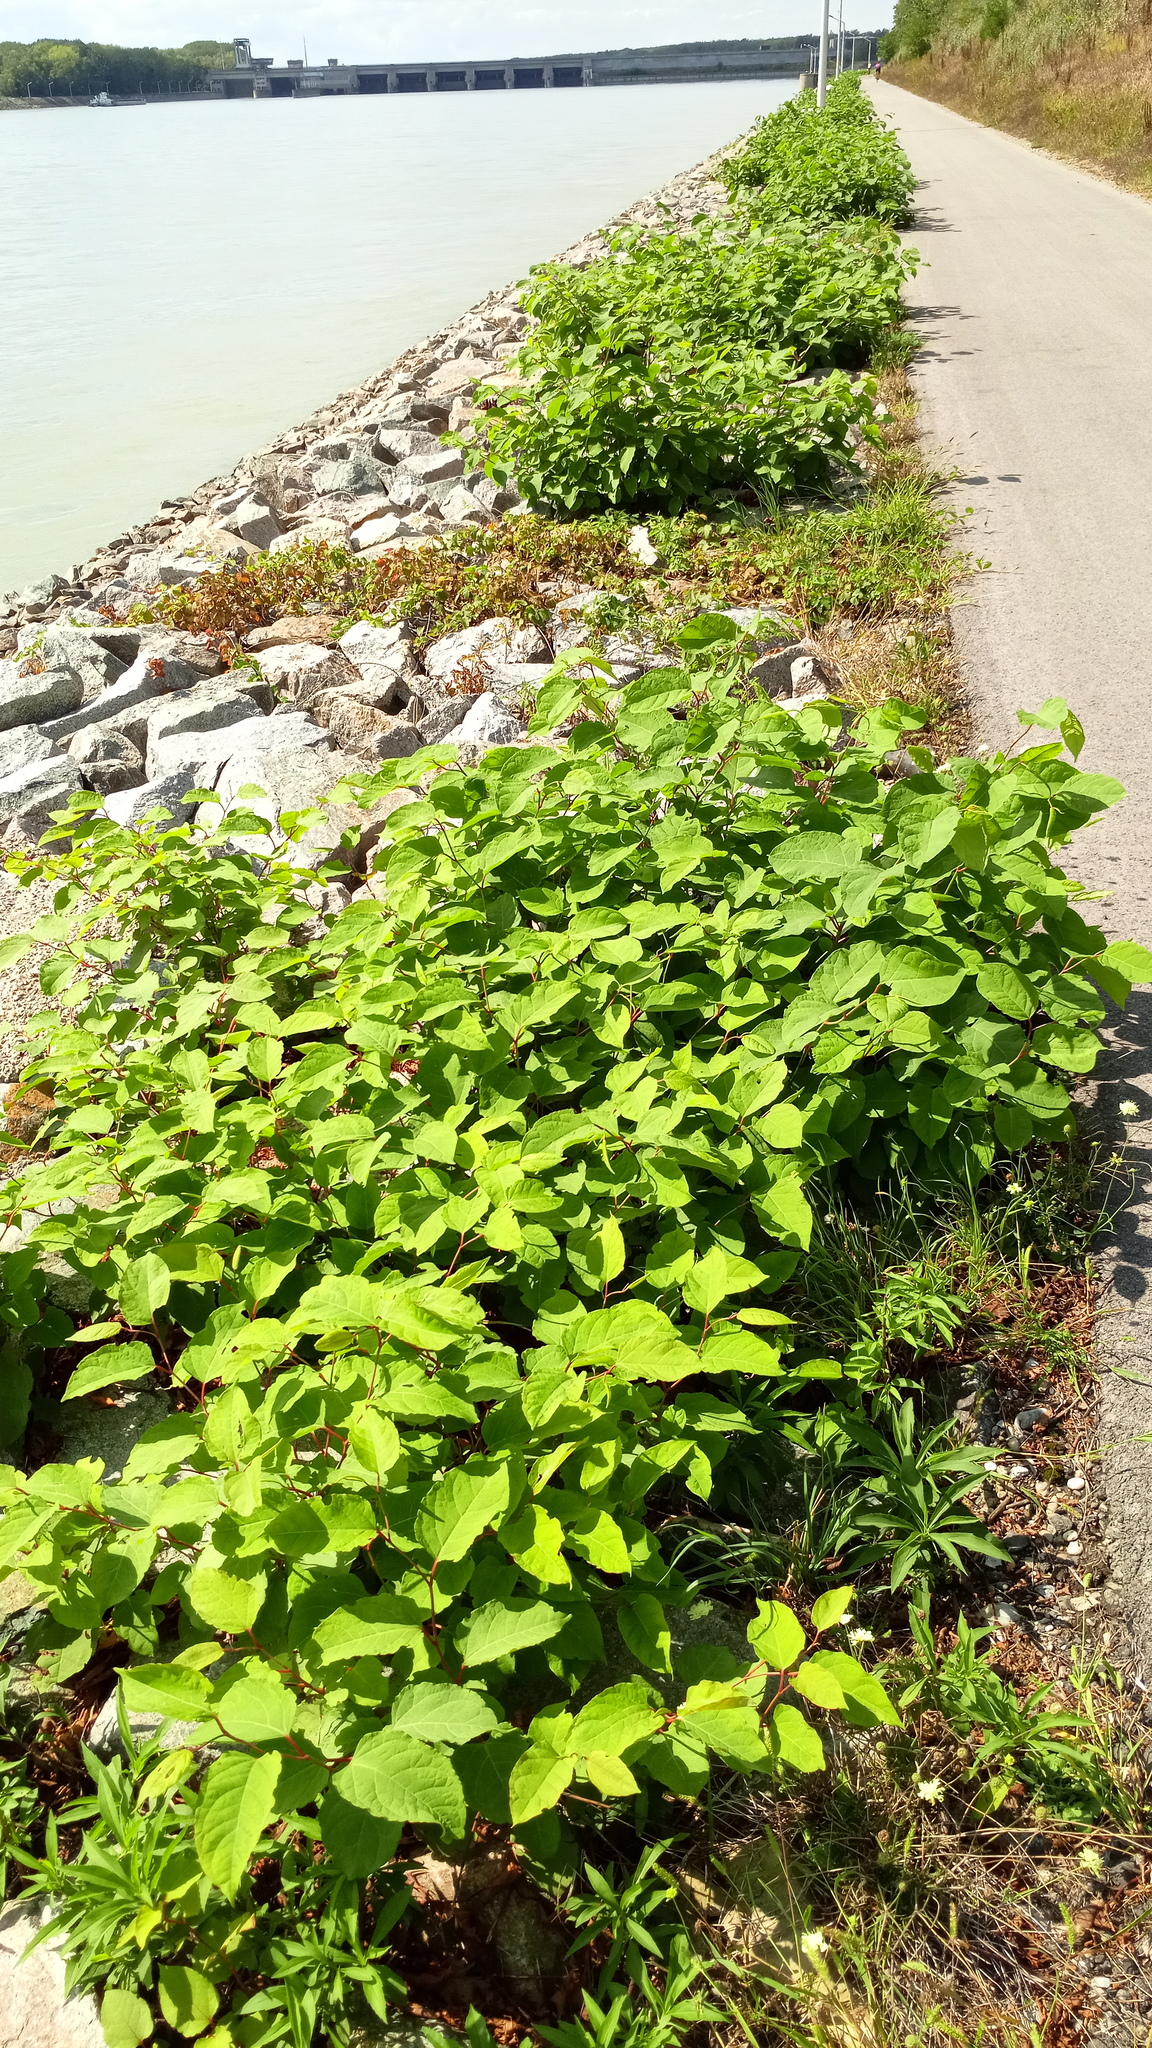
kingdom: Plantae
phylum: Tracheophyta
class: Magnoliopsida
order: Caryophyllales
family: Polygonaceae
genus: Reynoutria
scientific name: Reynoutria bohemica
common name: Bohemian knotweed
